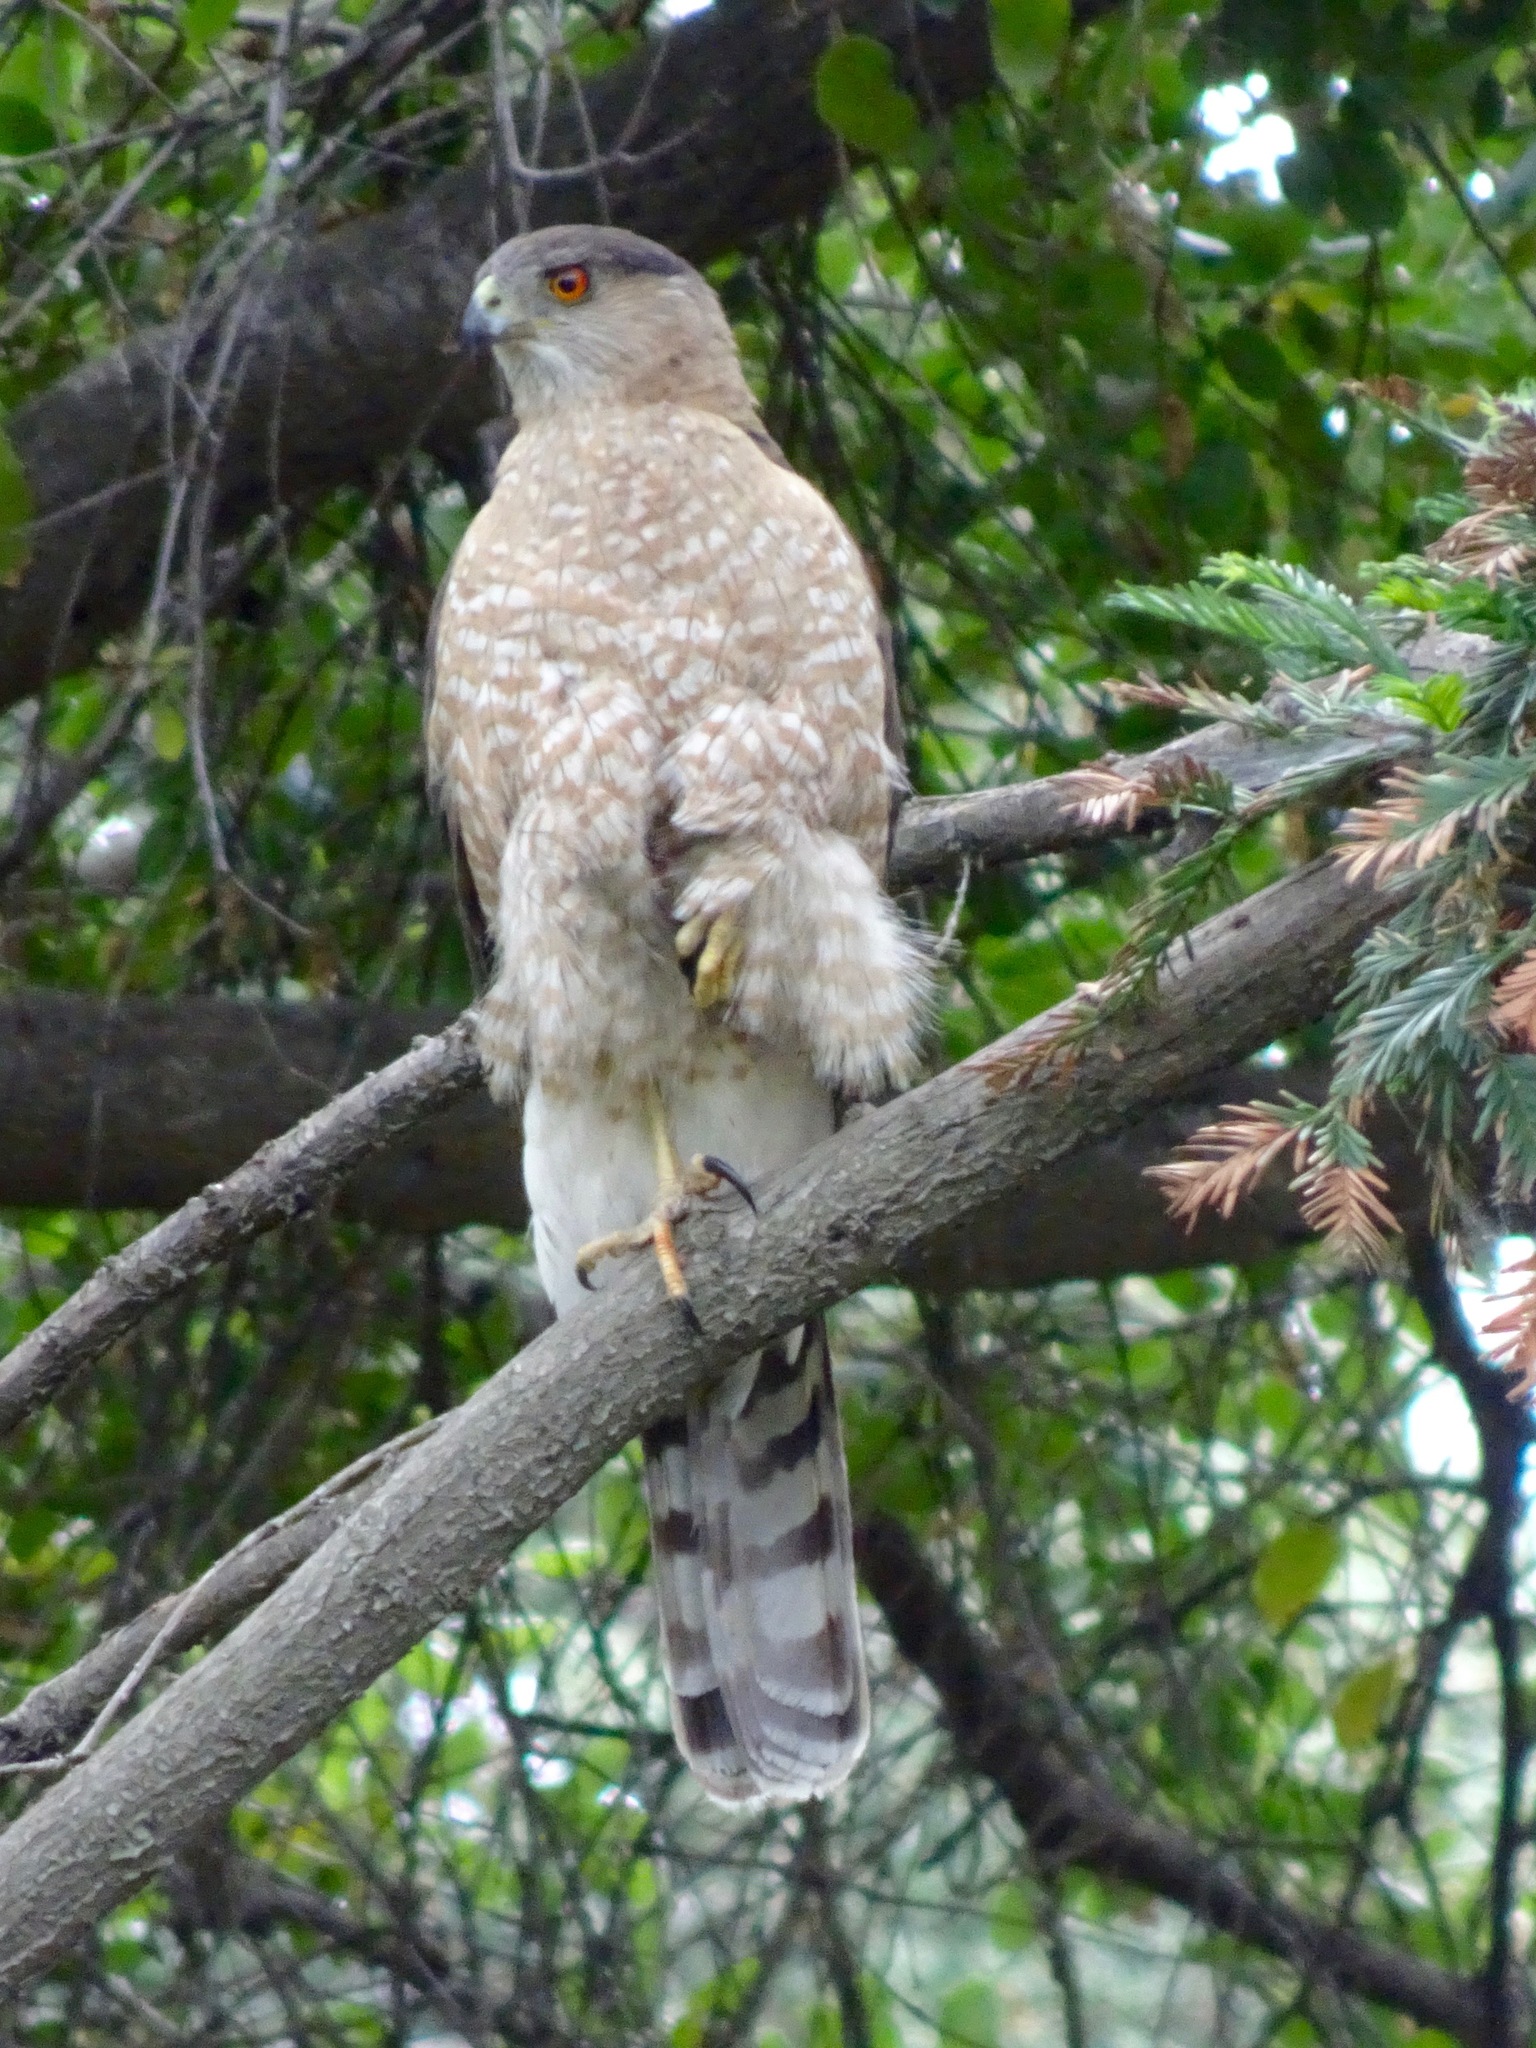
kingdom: Animalia
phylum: Chordata
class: Aves
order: Accipitriformes
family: Accipitridae
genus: Accipiter
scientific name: Accipiter cooperii
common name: Cooper's hawk
